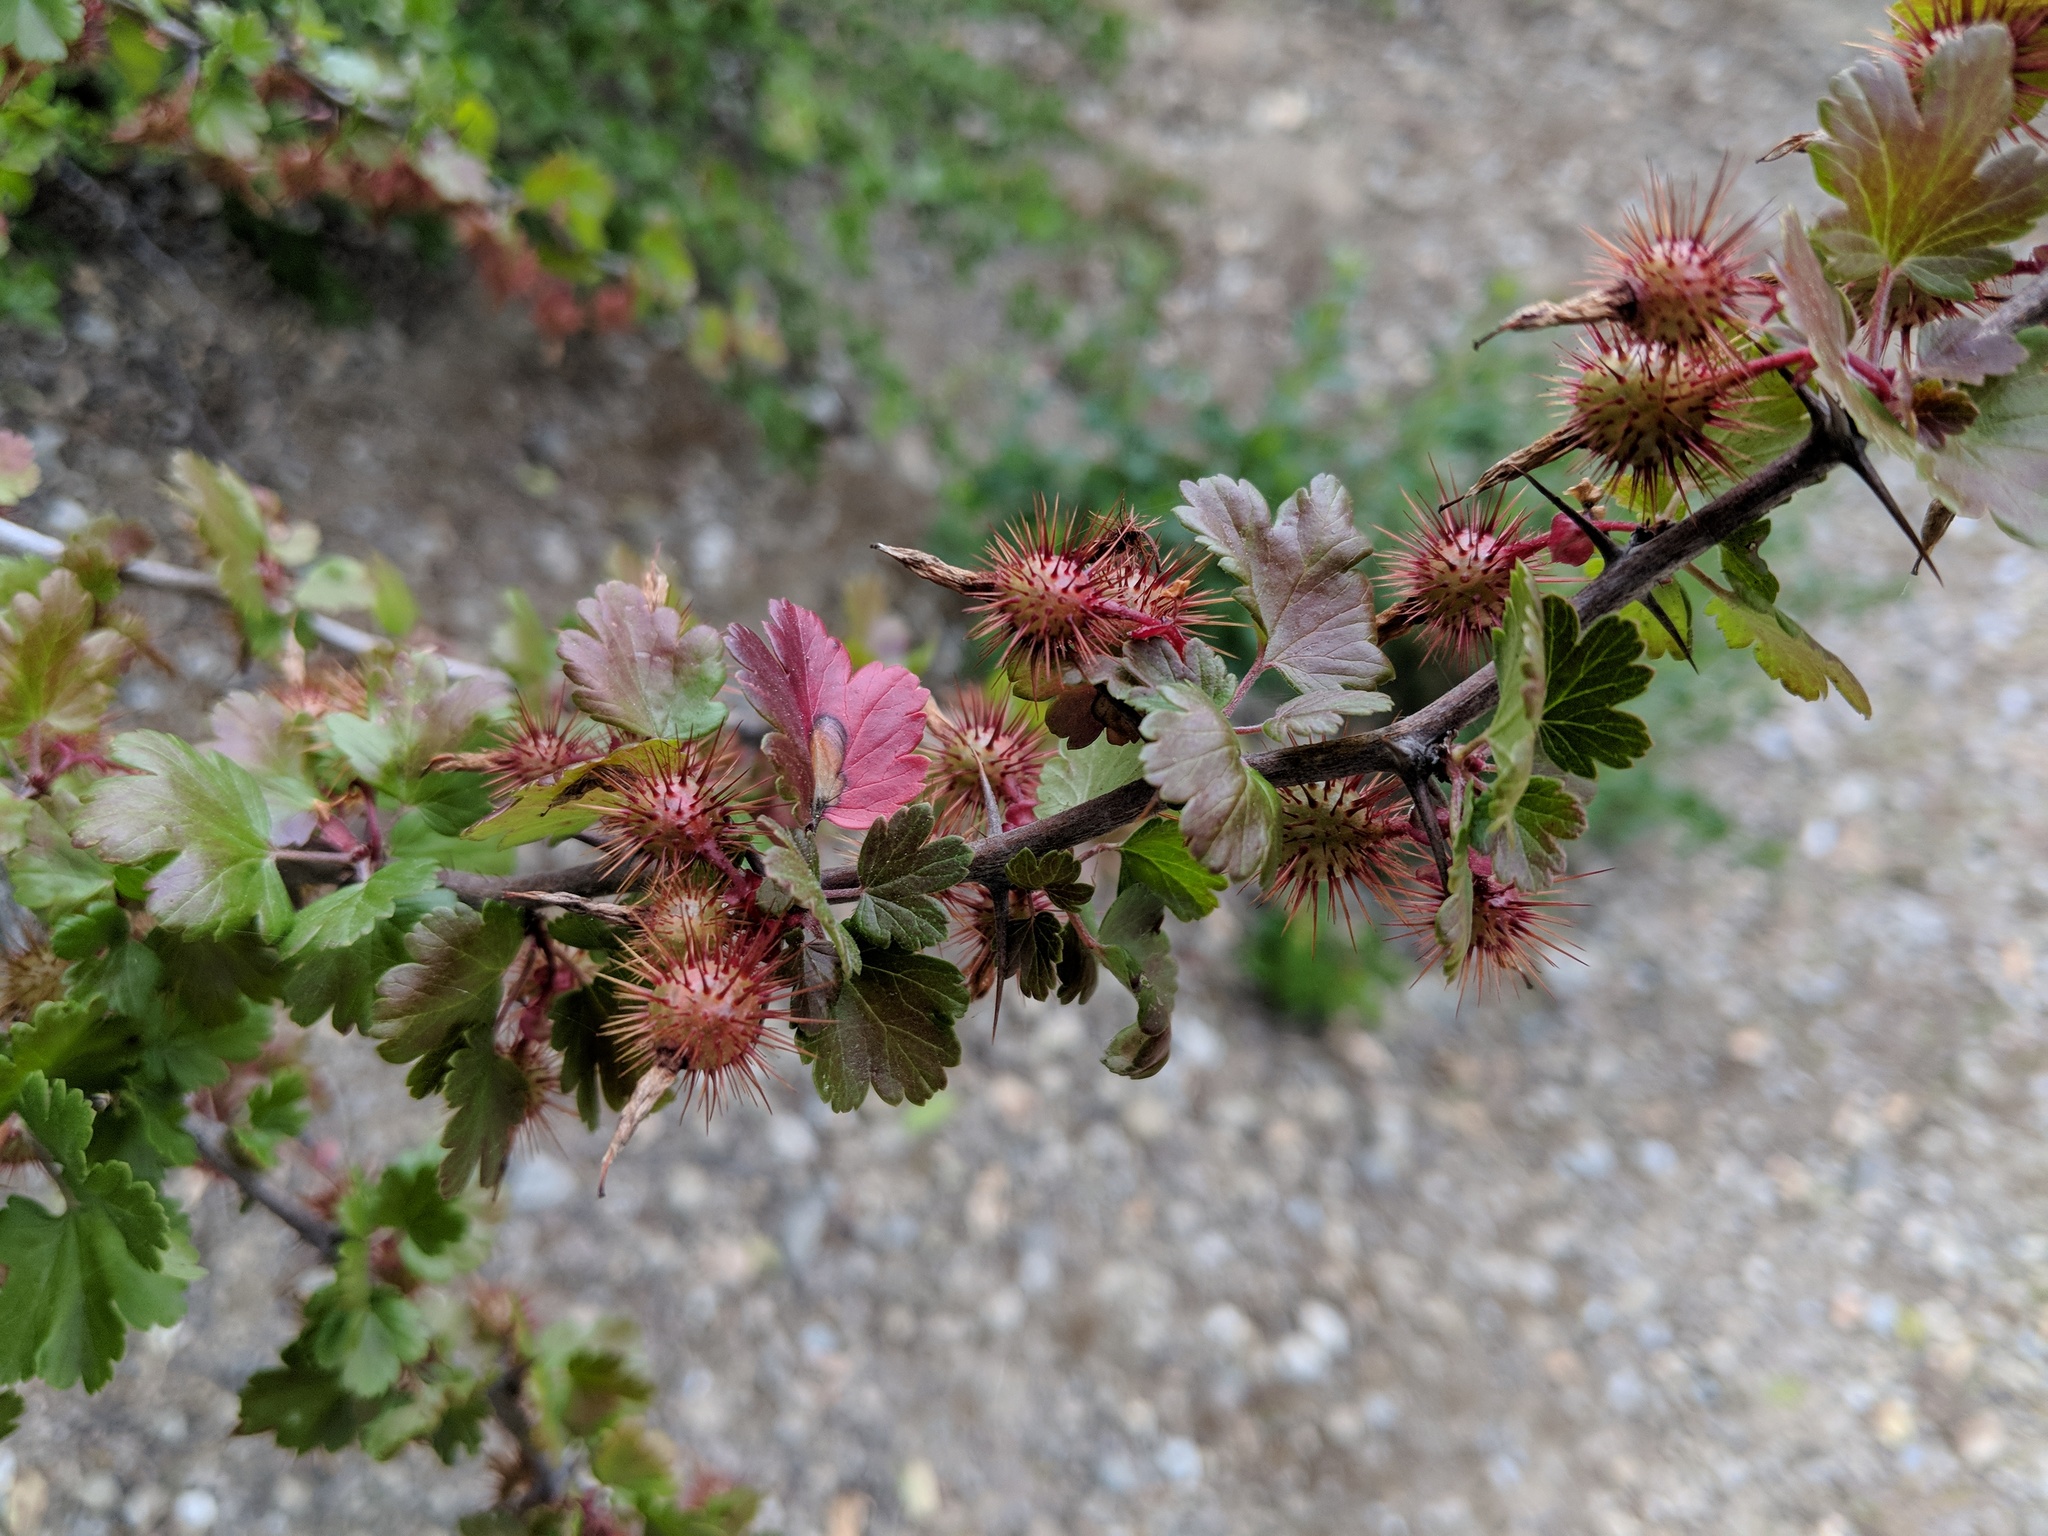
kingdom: Plantae
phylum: Tracheophyta
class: Magnoliopsida
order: Saxifragales
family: Grossulariaceae
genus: Ribes
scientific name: Ribes californicum
